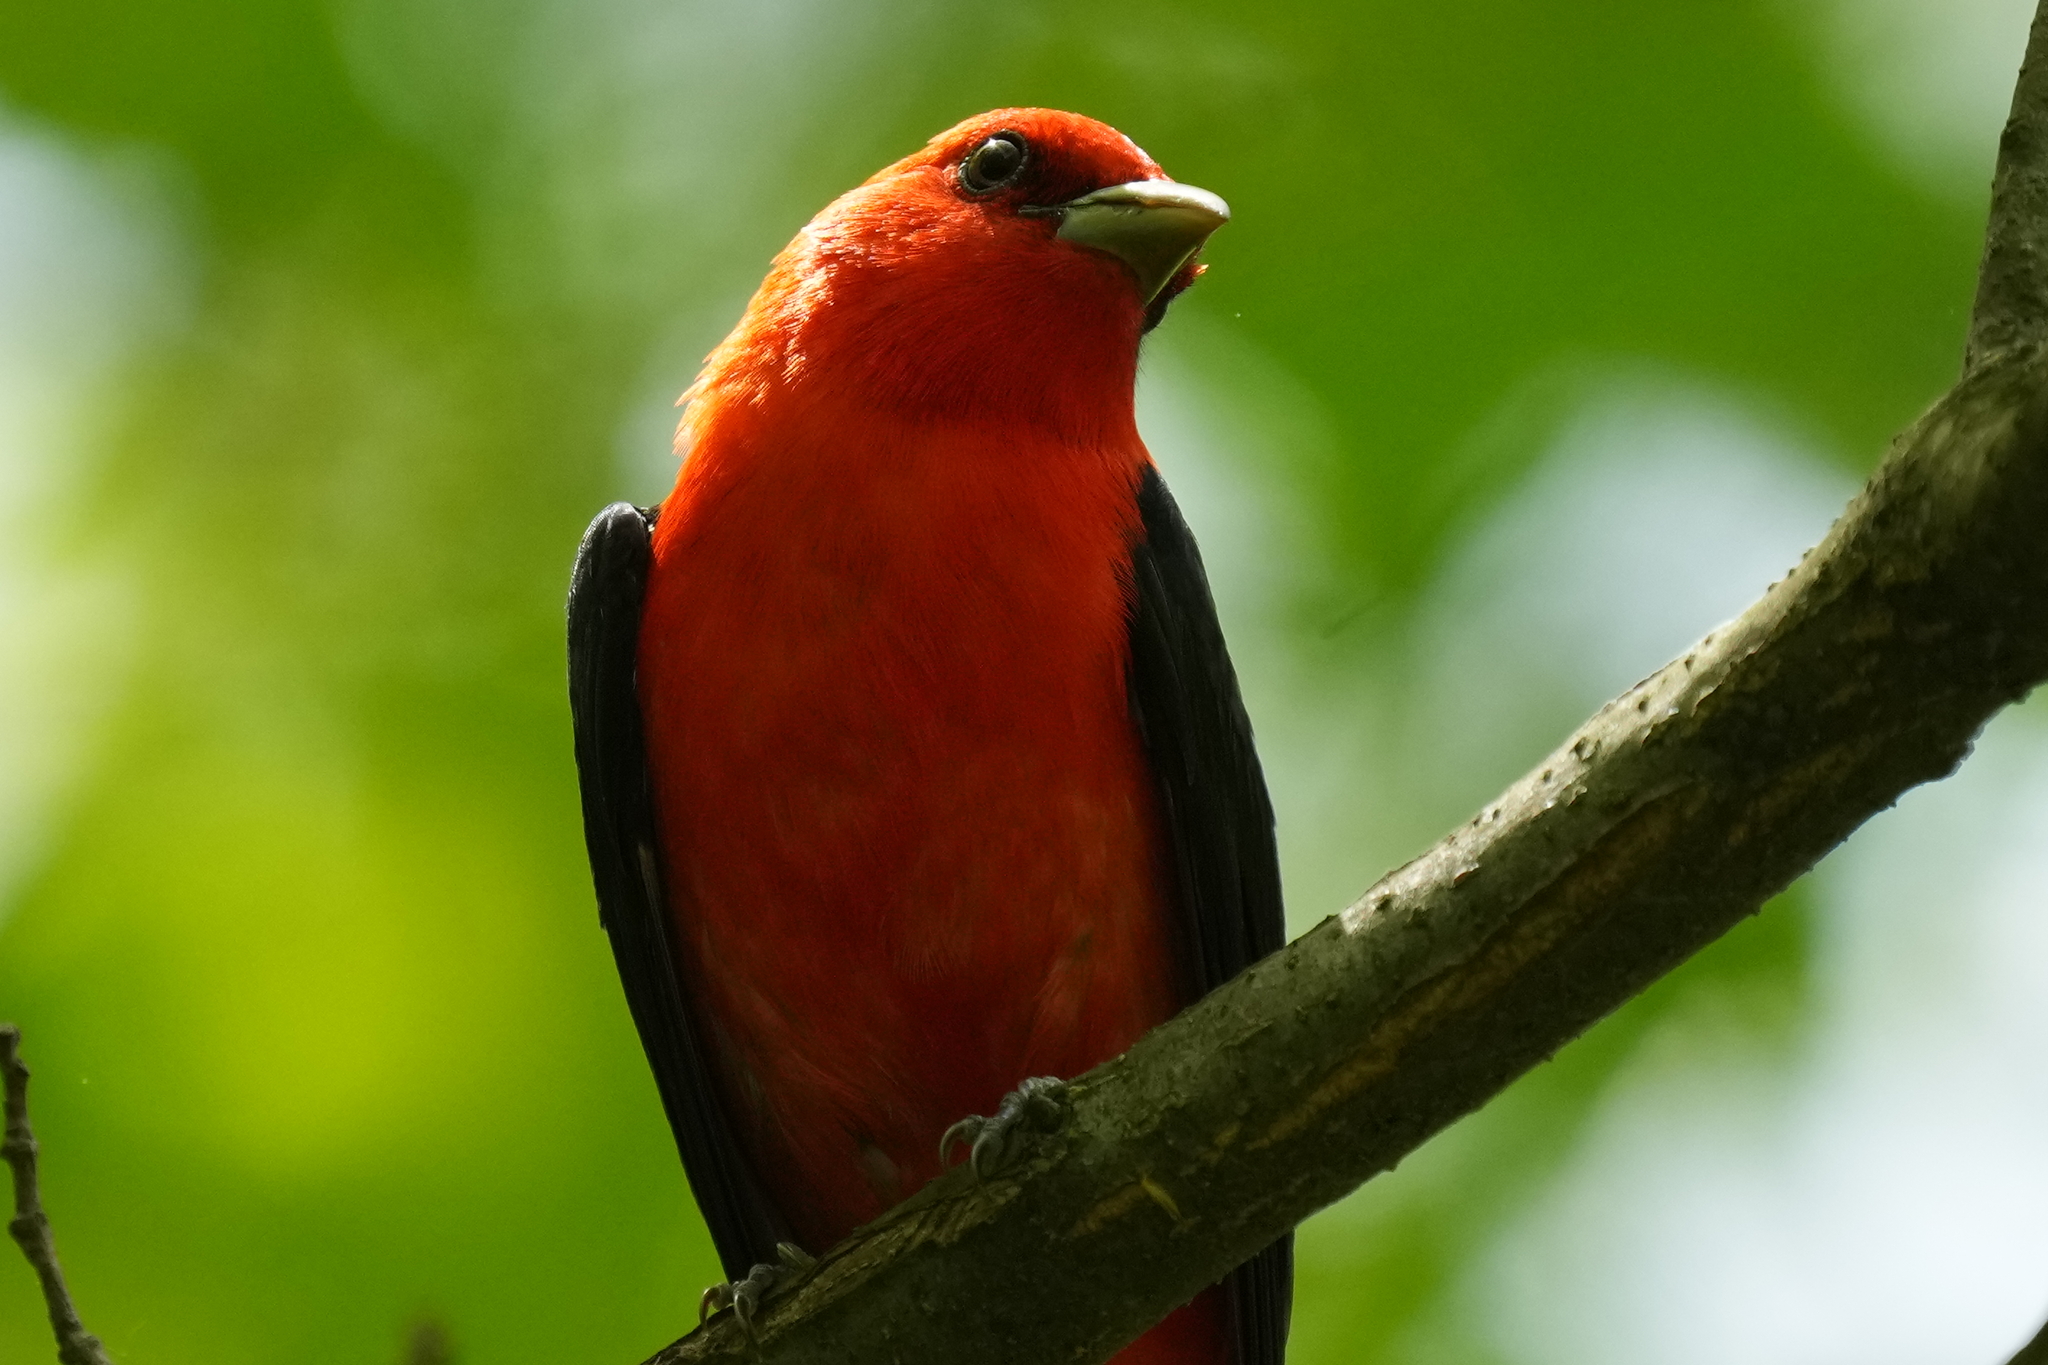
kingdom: Animalia
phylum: Chordata
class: Aves
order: Passeriformes
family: Cardinalidae
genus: Piranga
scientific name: Piranga olivacea
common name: Scarlet tanager
